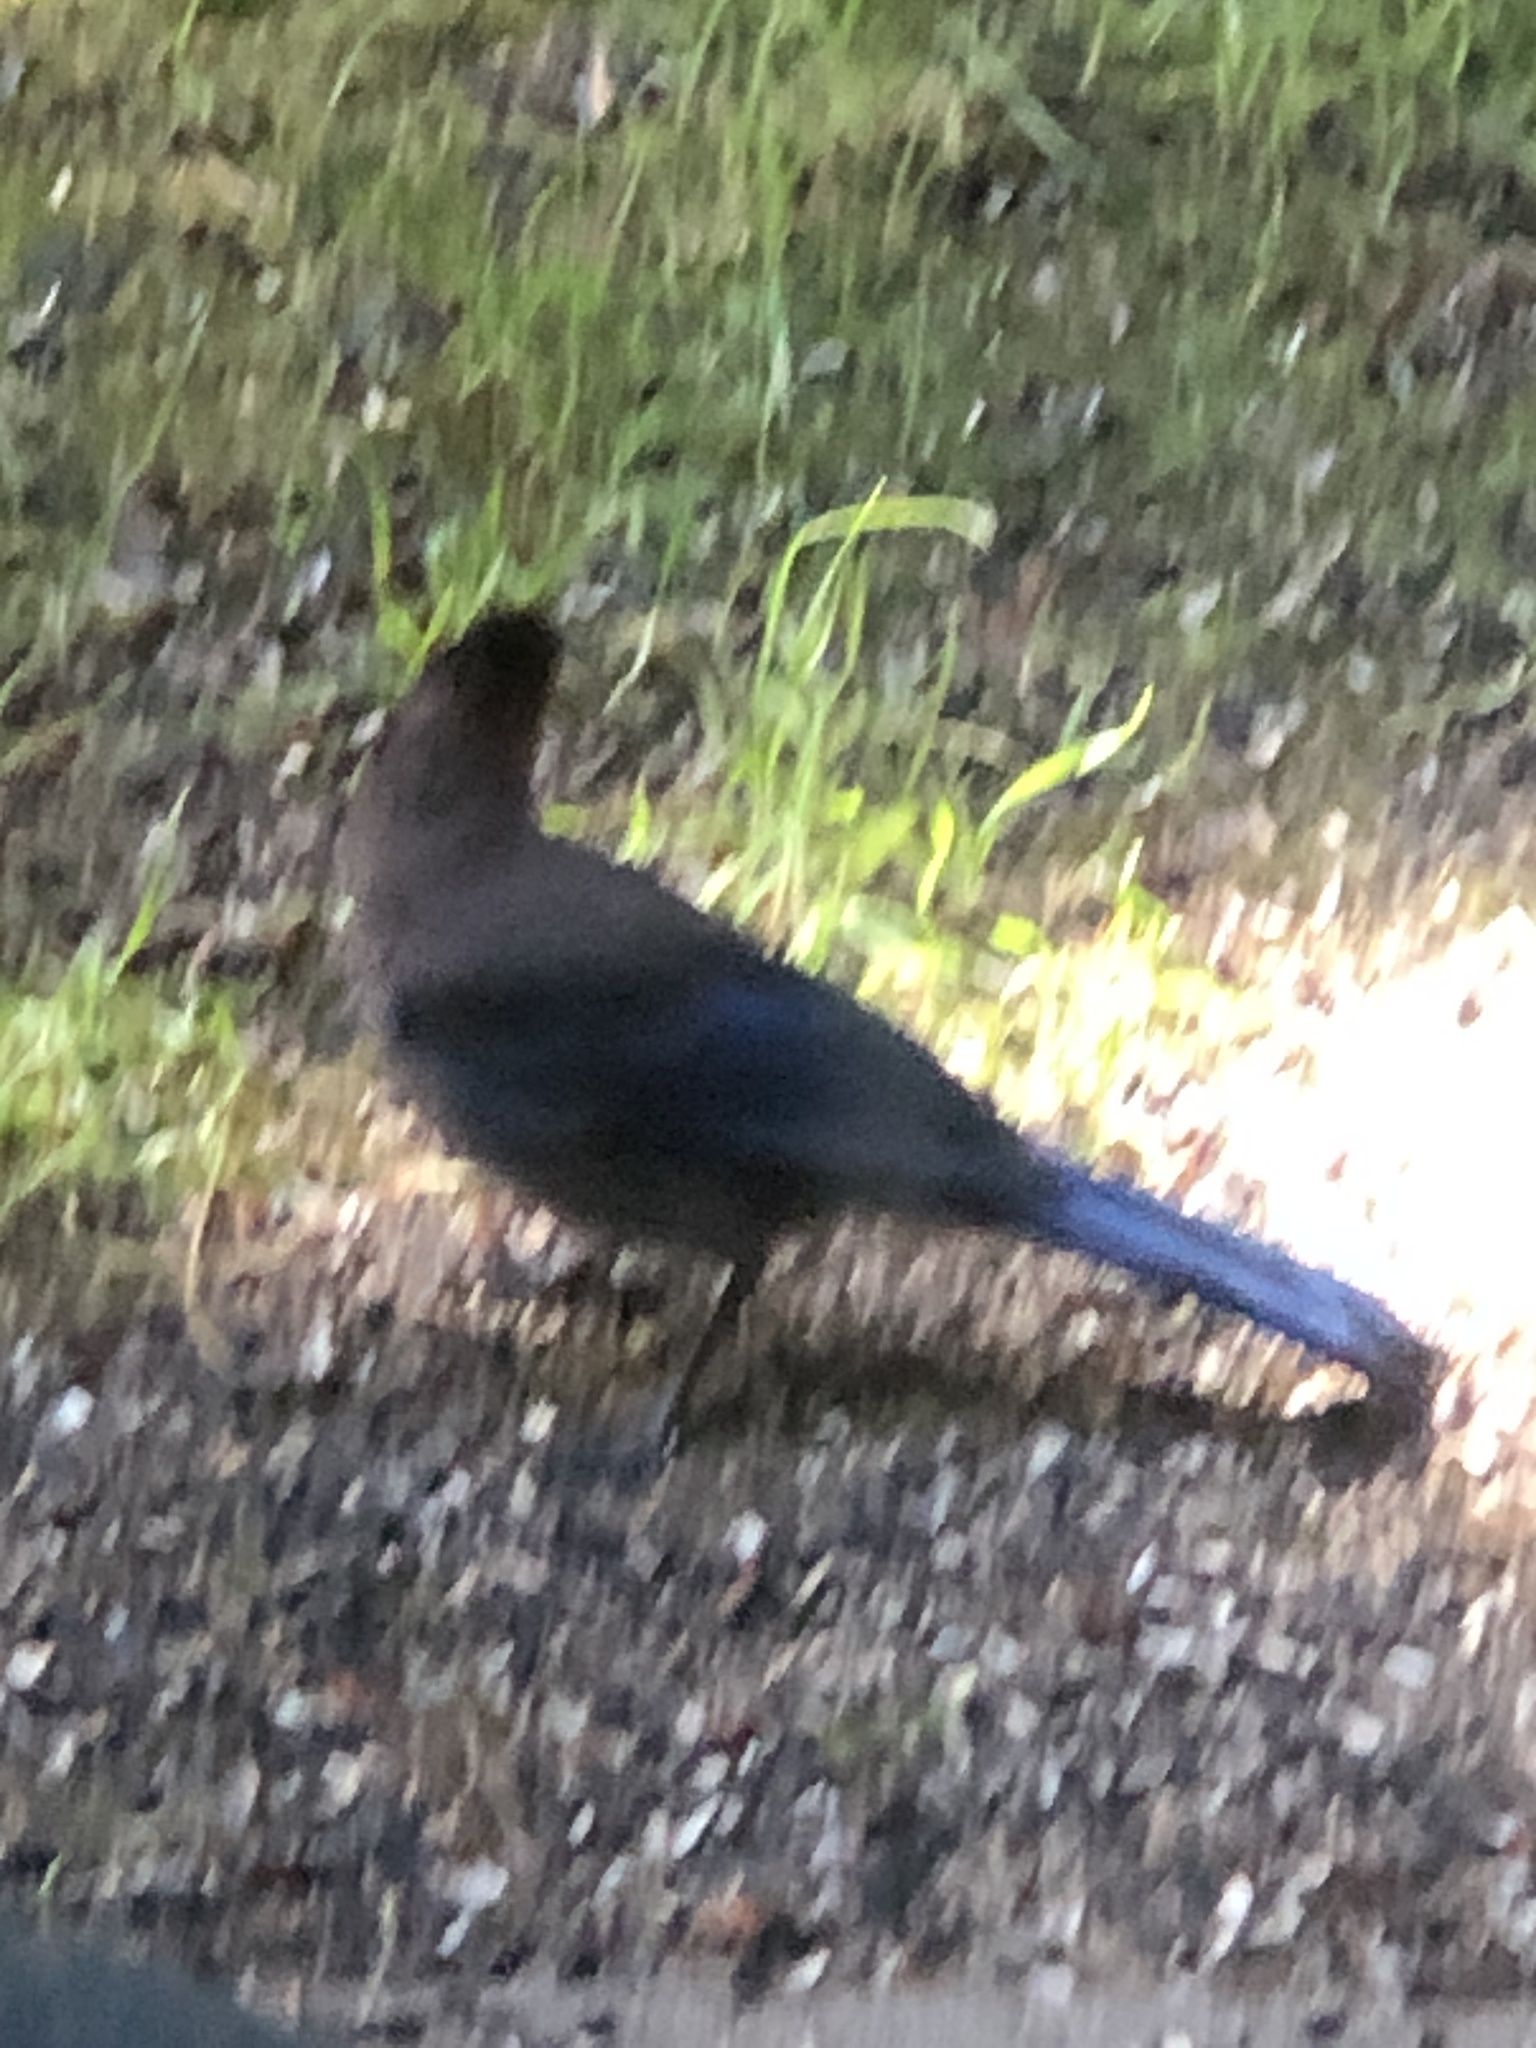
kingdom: Animalia
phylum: Chordata
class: Aves
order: Passeriformes
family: Corvidae
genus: Cyanocitta
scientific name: Cyanocitta stelleri
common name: Steller's jay
